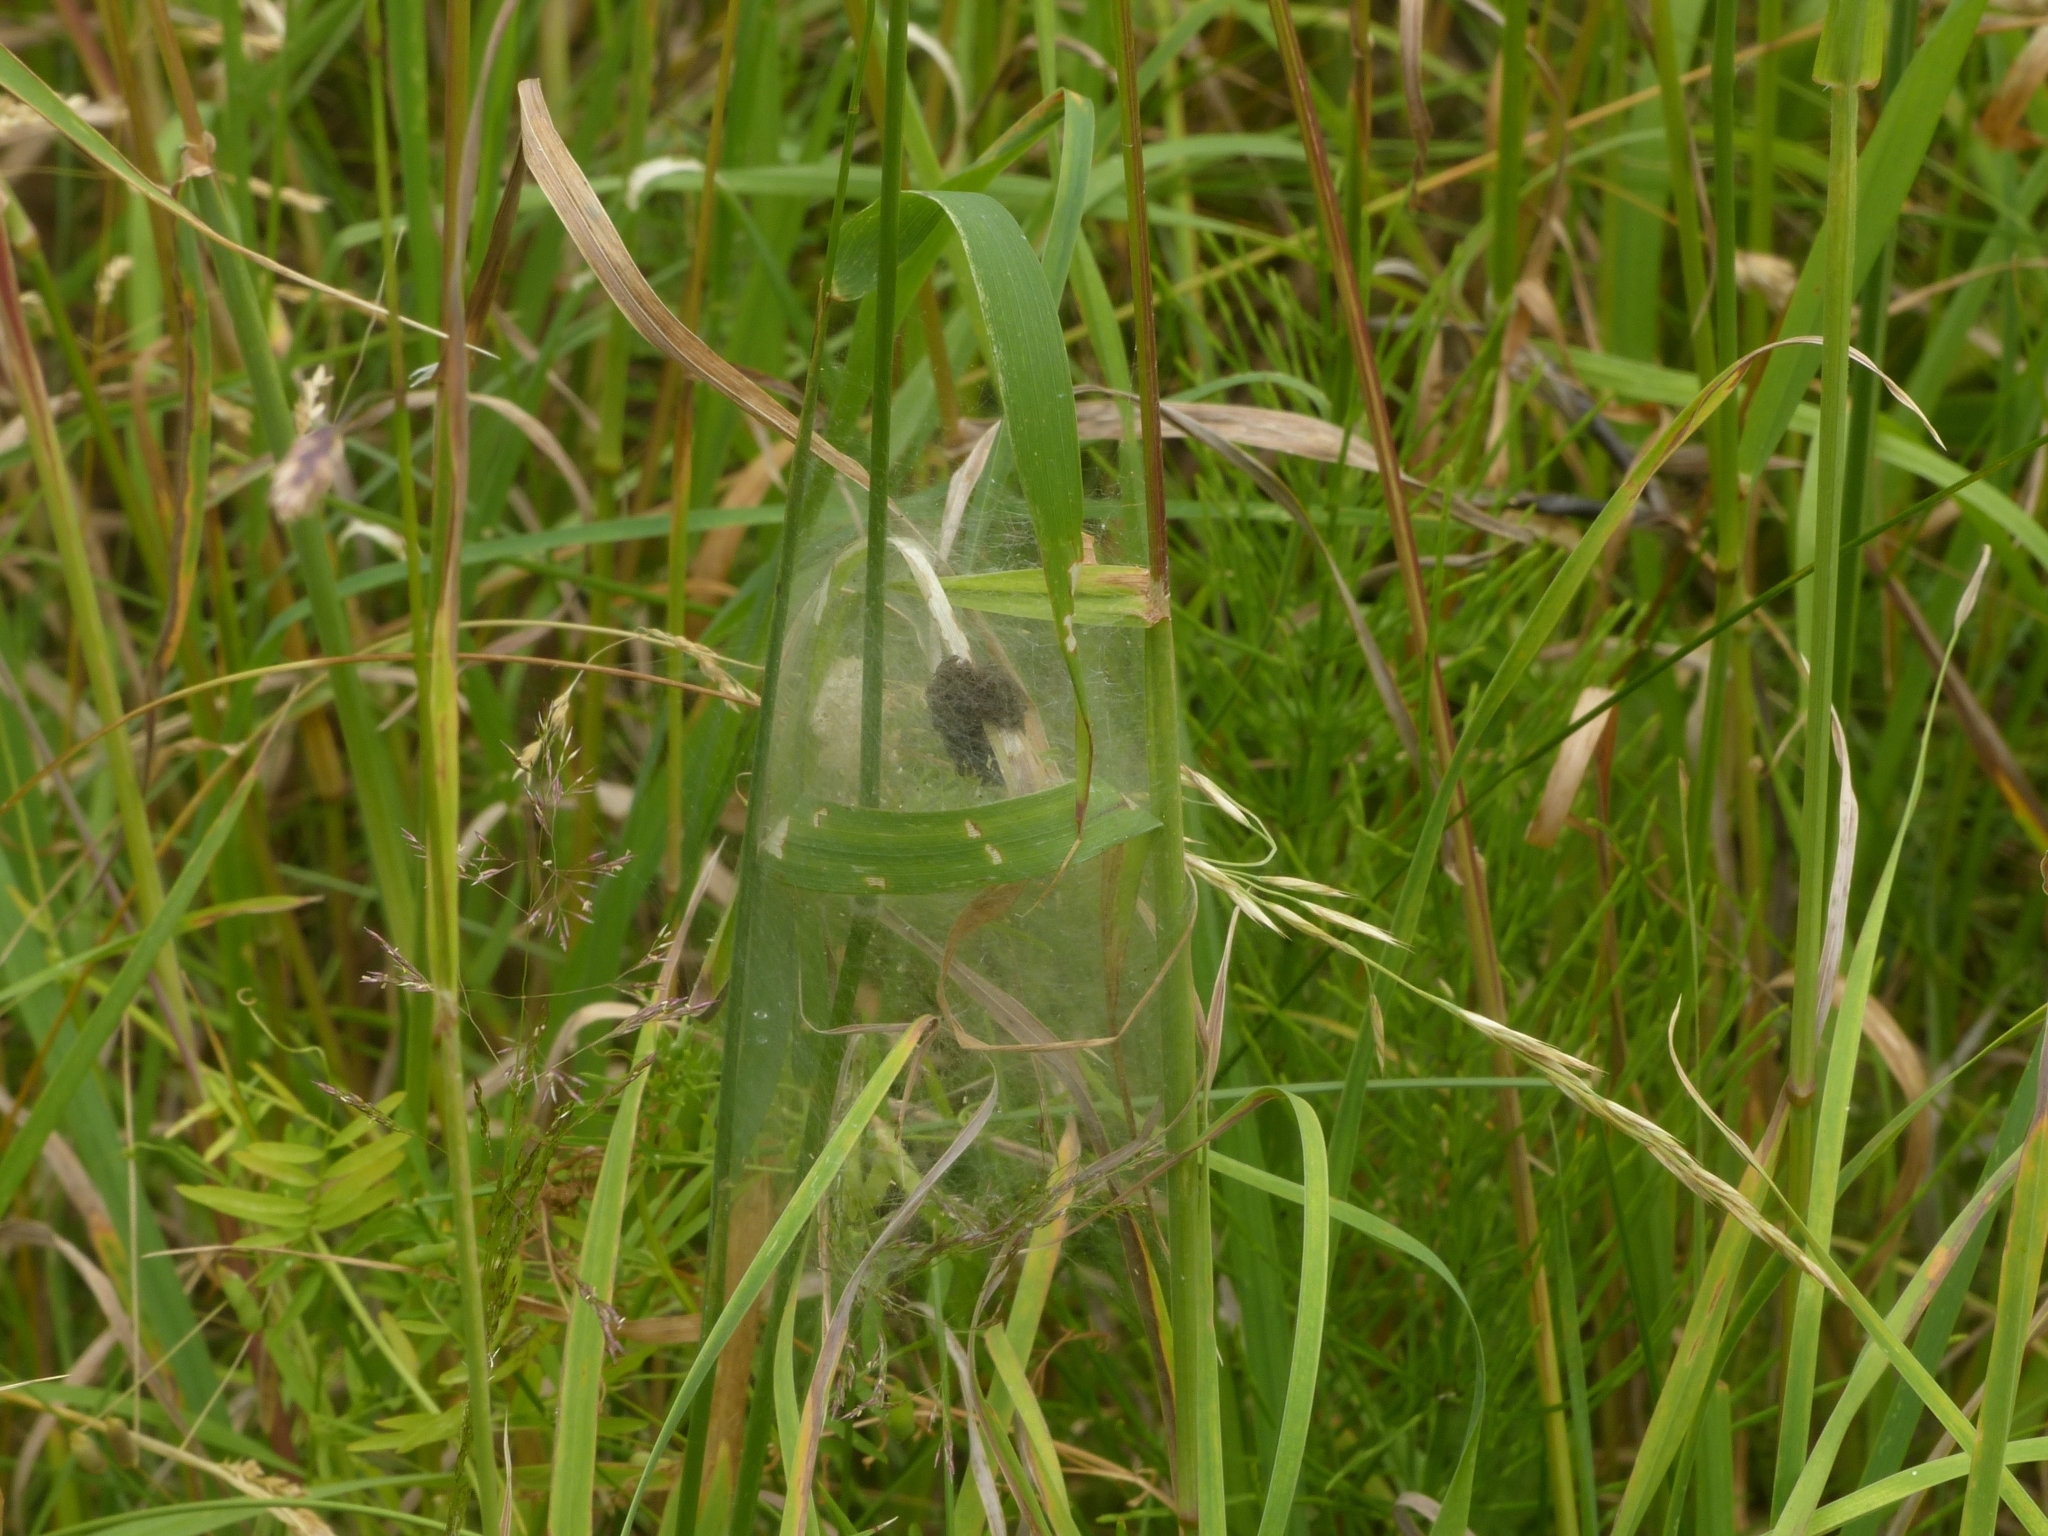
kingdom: Animalia
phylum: Arthropoda
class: Arachnida
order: Araneae
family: Pisauridae
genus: Pisaura
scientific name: Pisaura mirabilis
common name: Tent spider
